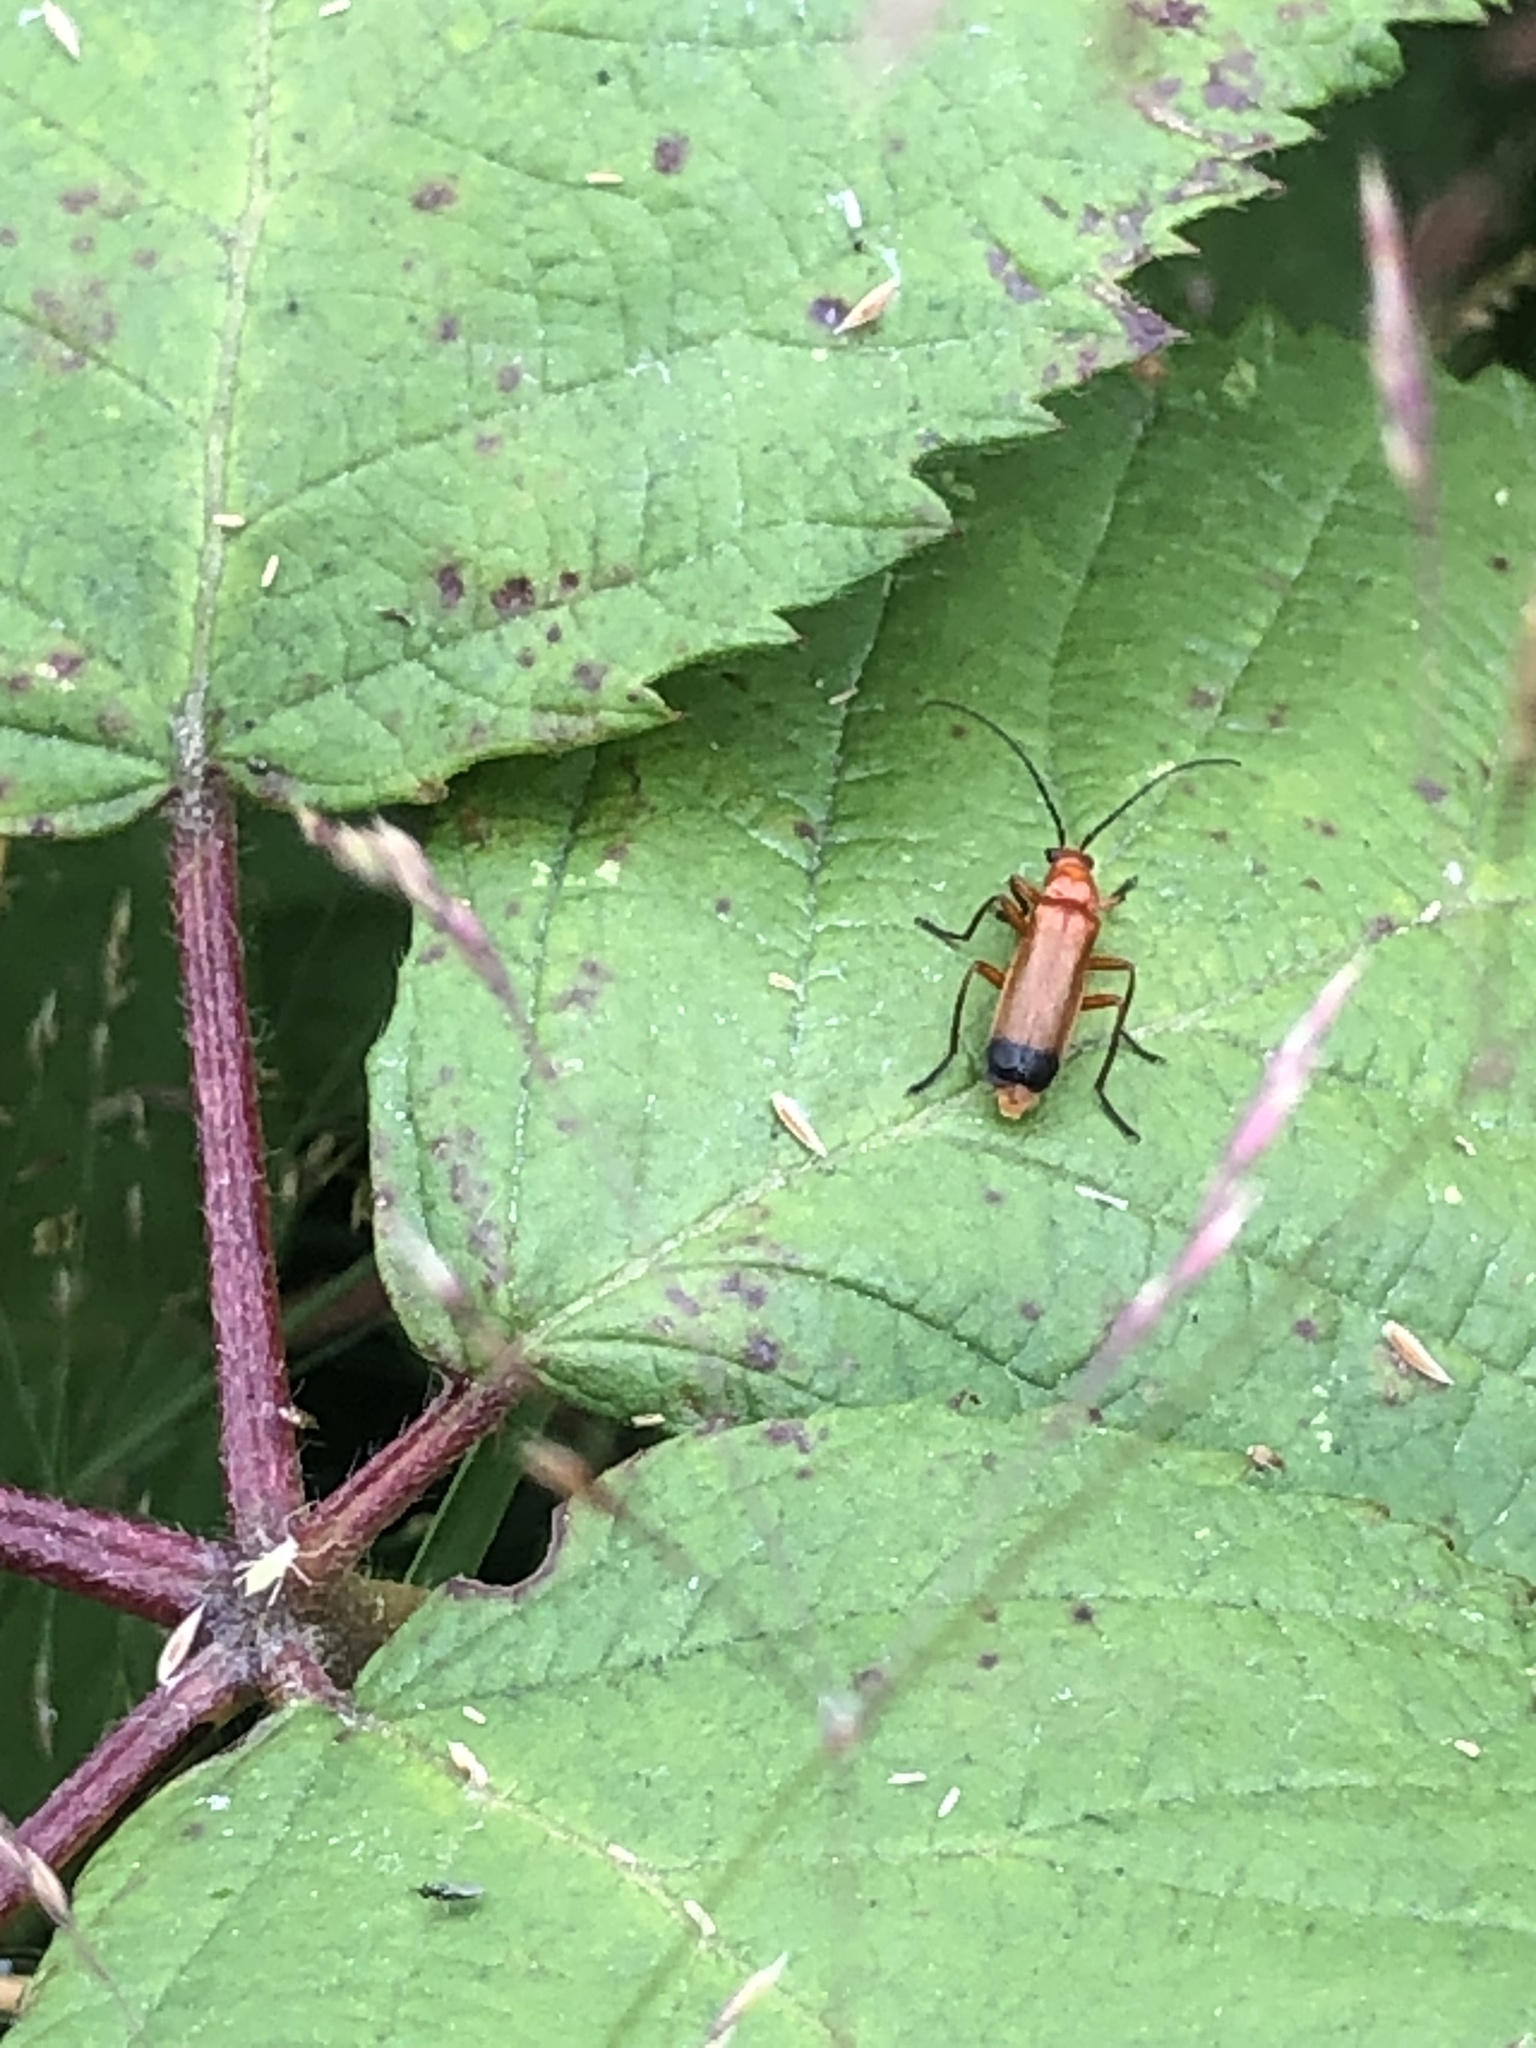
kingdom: Animalia
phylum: Arthropoda
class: Insecta
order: Coleoptera
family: Cantharidae
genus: Rhagonycha
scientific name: Rhagonycha fulva
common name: Common red soldier beetle
